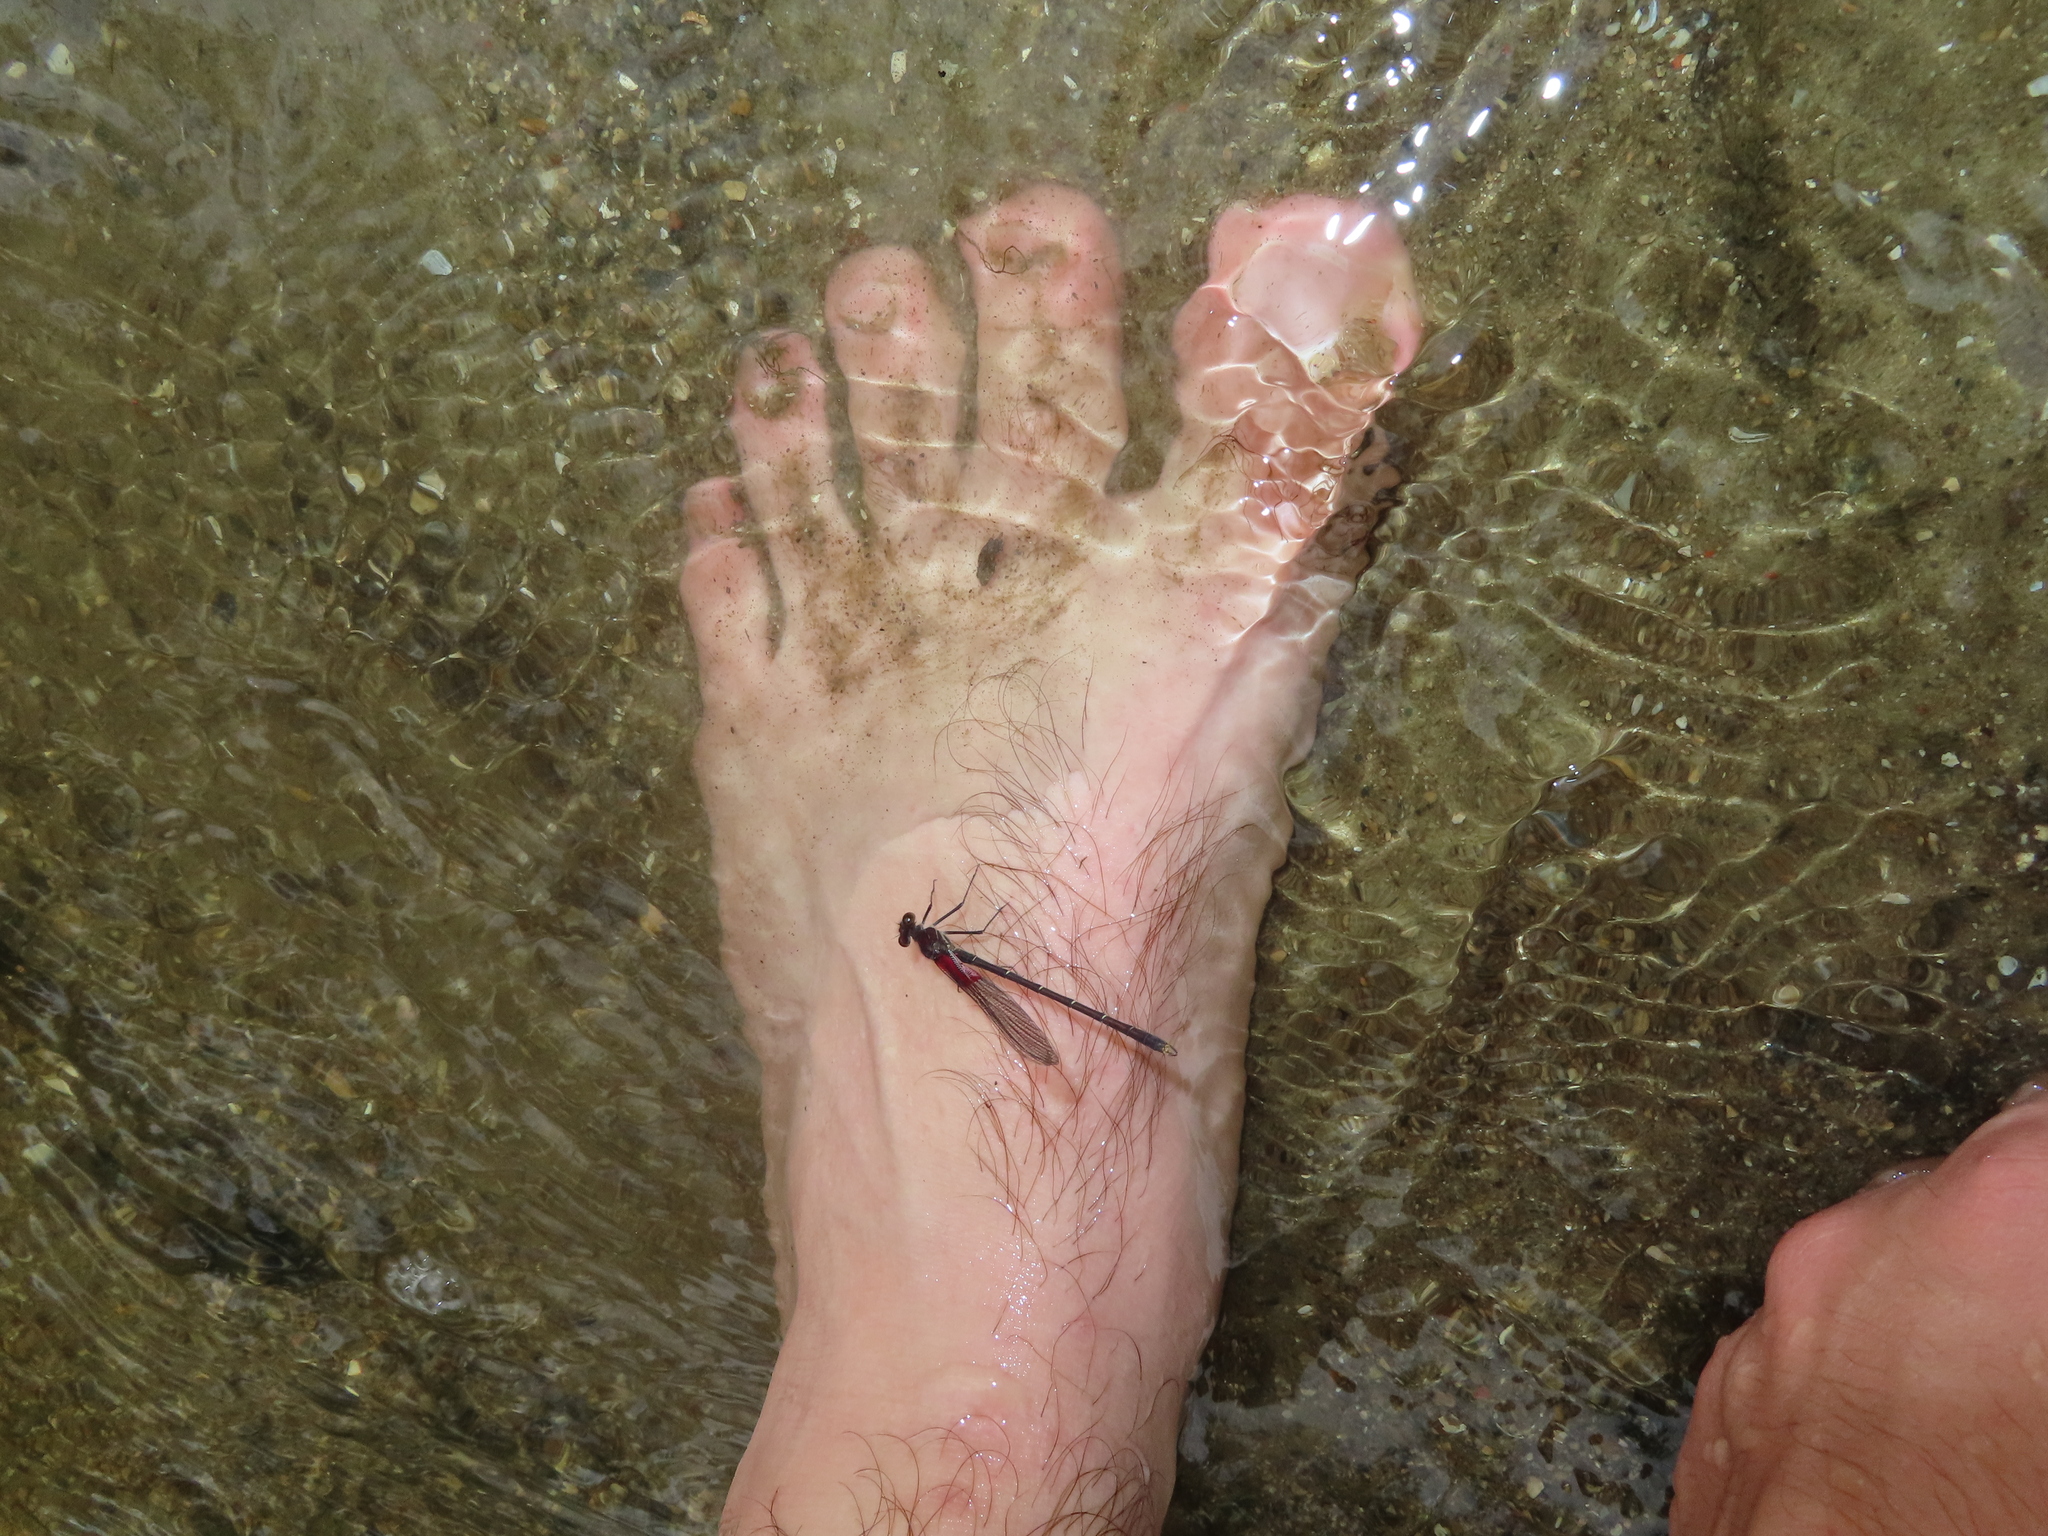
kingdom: Animalia
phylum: Arthropoda
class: Insecta
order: Odonata
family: Calopterygidae
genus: Hetaerina
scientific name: Hetaerina americana
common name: American rubyspot
